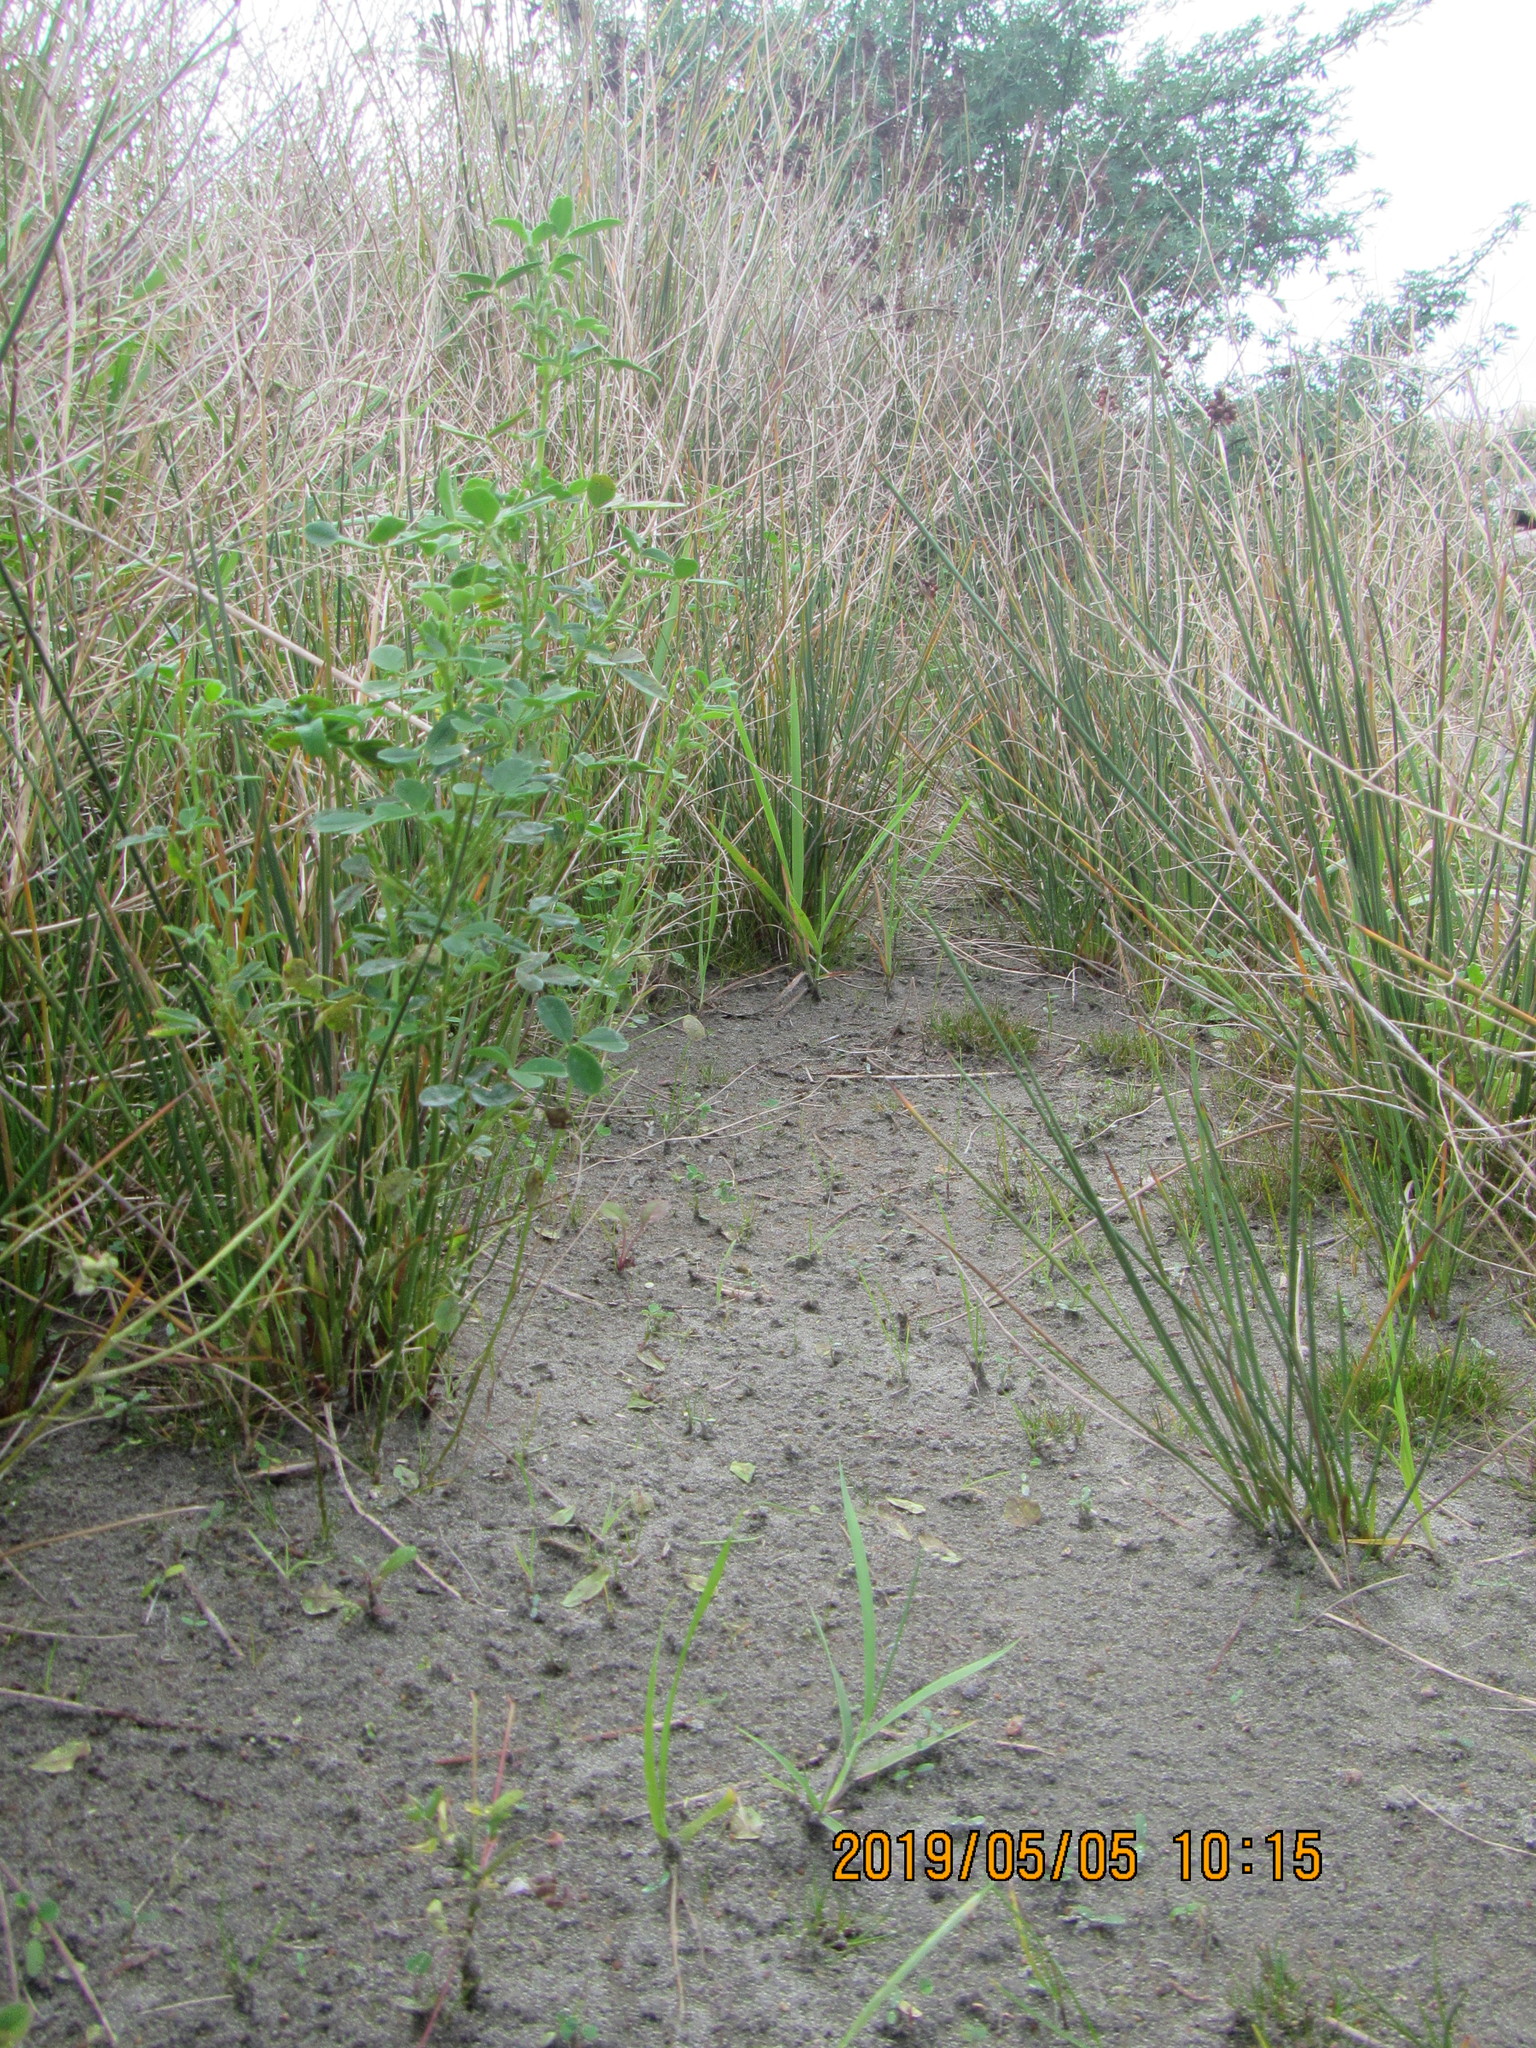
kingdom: Plantae
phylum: Tracheophyta
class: Magnoliopsida
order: Fabales
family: Fabaceae
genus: Melilotus
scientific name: Melilotus indicus
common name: Small melilot
